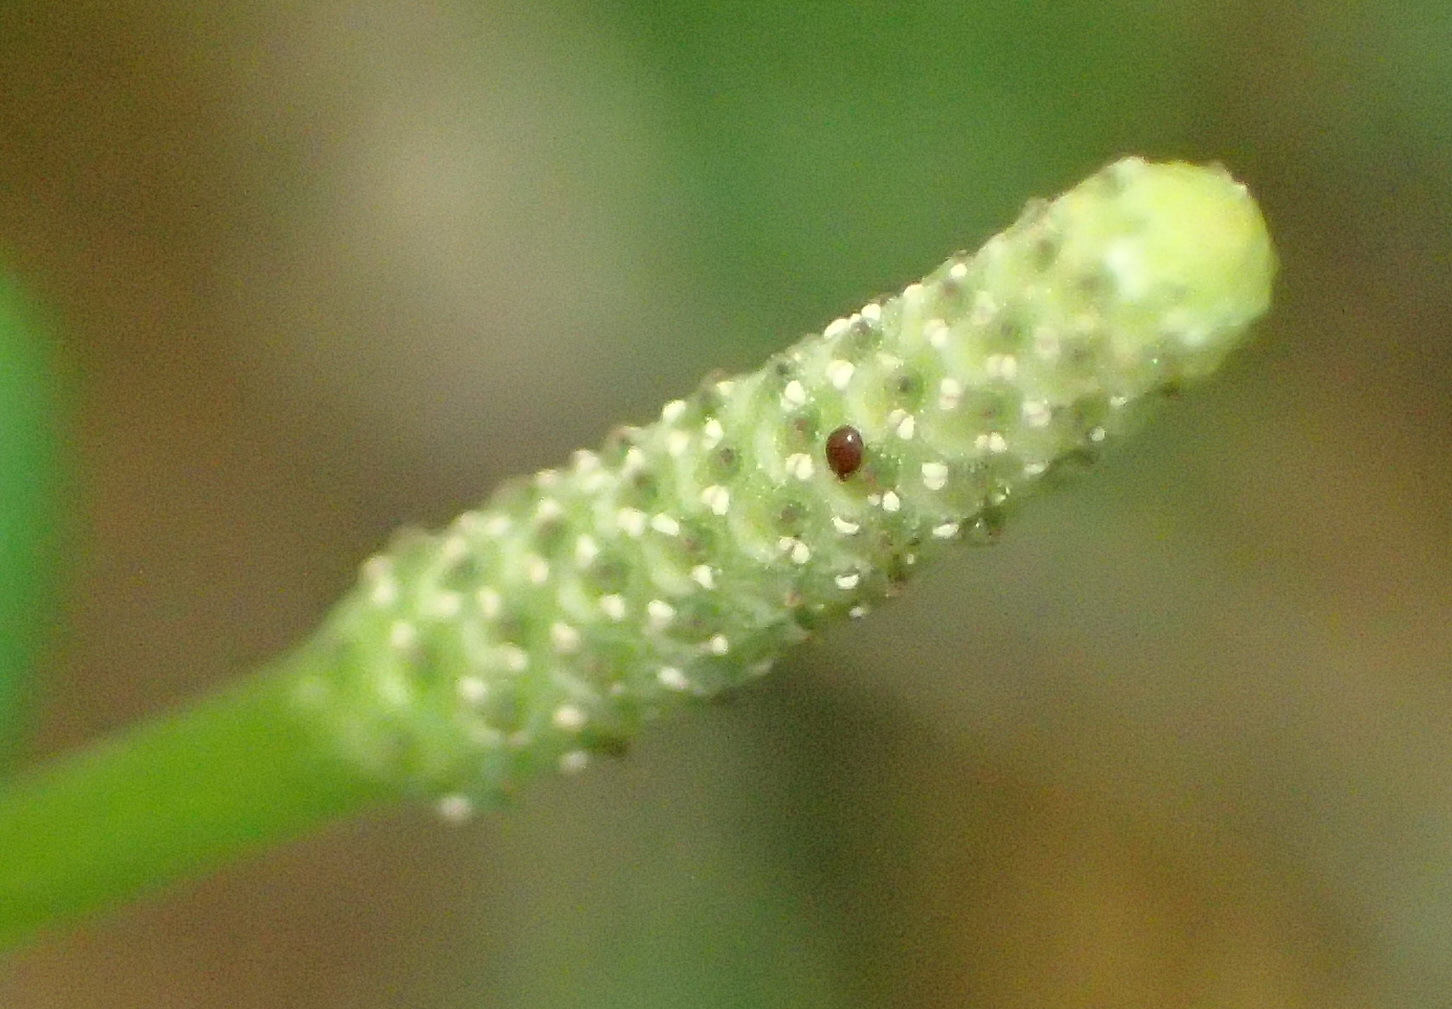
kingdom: Plantae
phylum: Tracheophyta
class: Magnoliopsida
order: Piperales
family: Piperaceae
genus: Peperomia
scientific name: Peperomia tetraphylla
